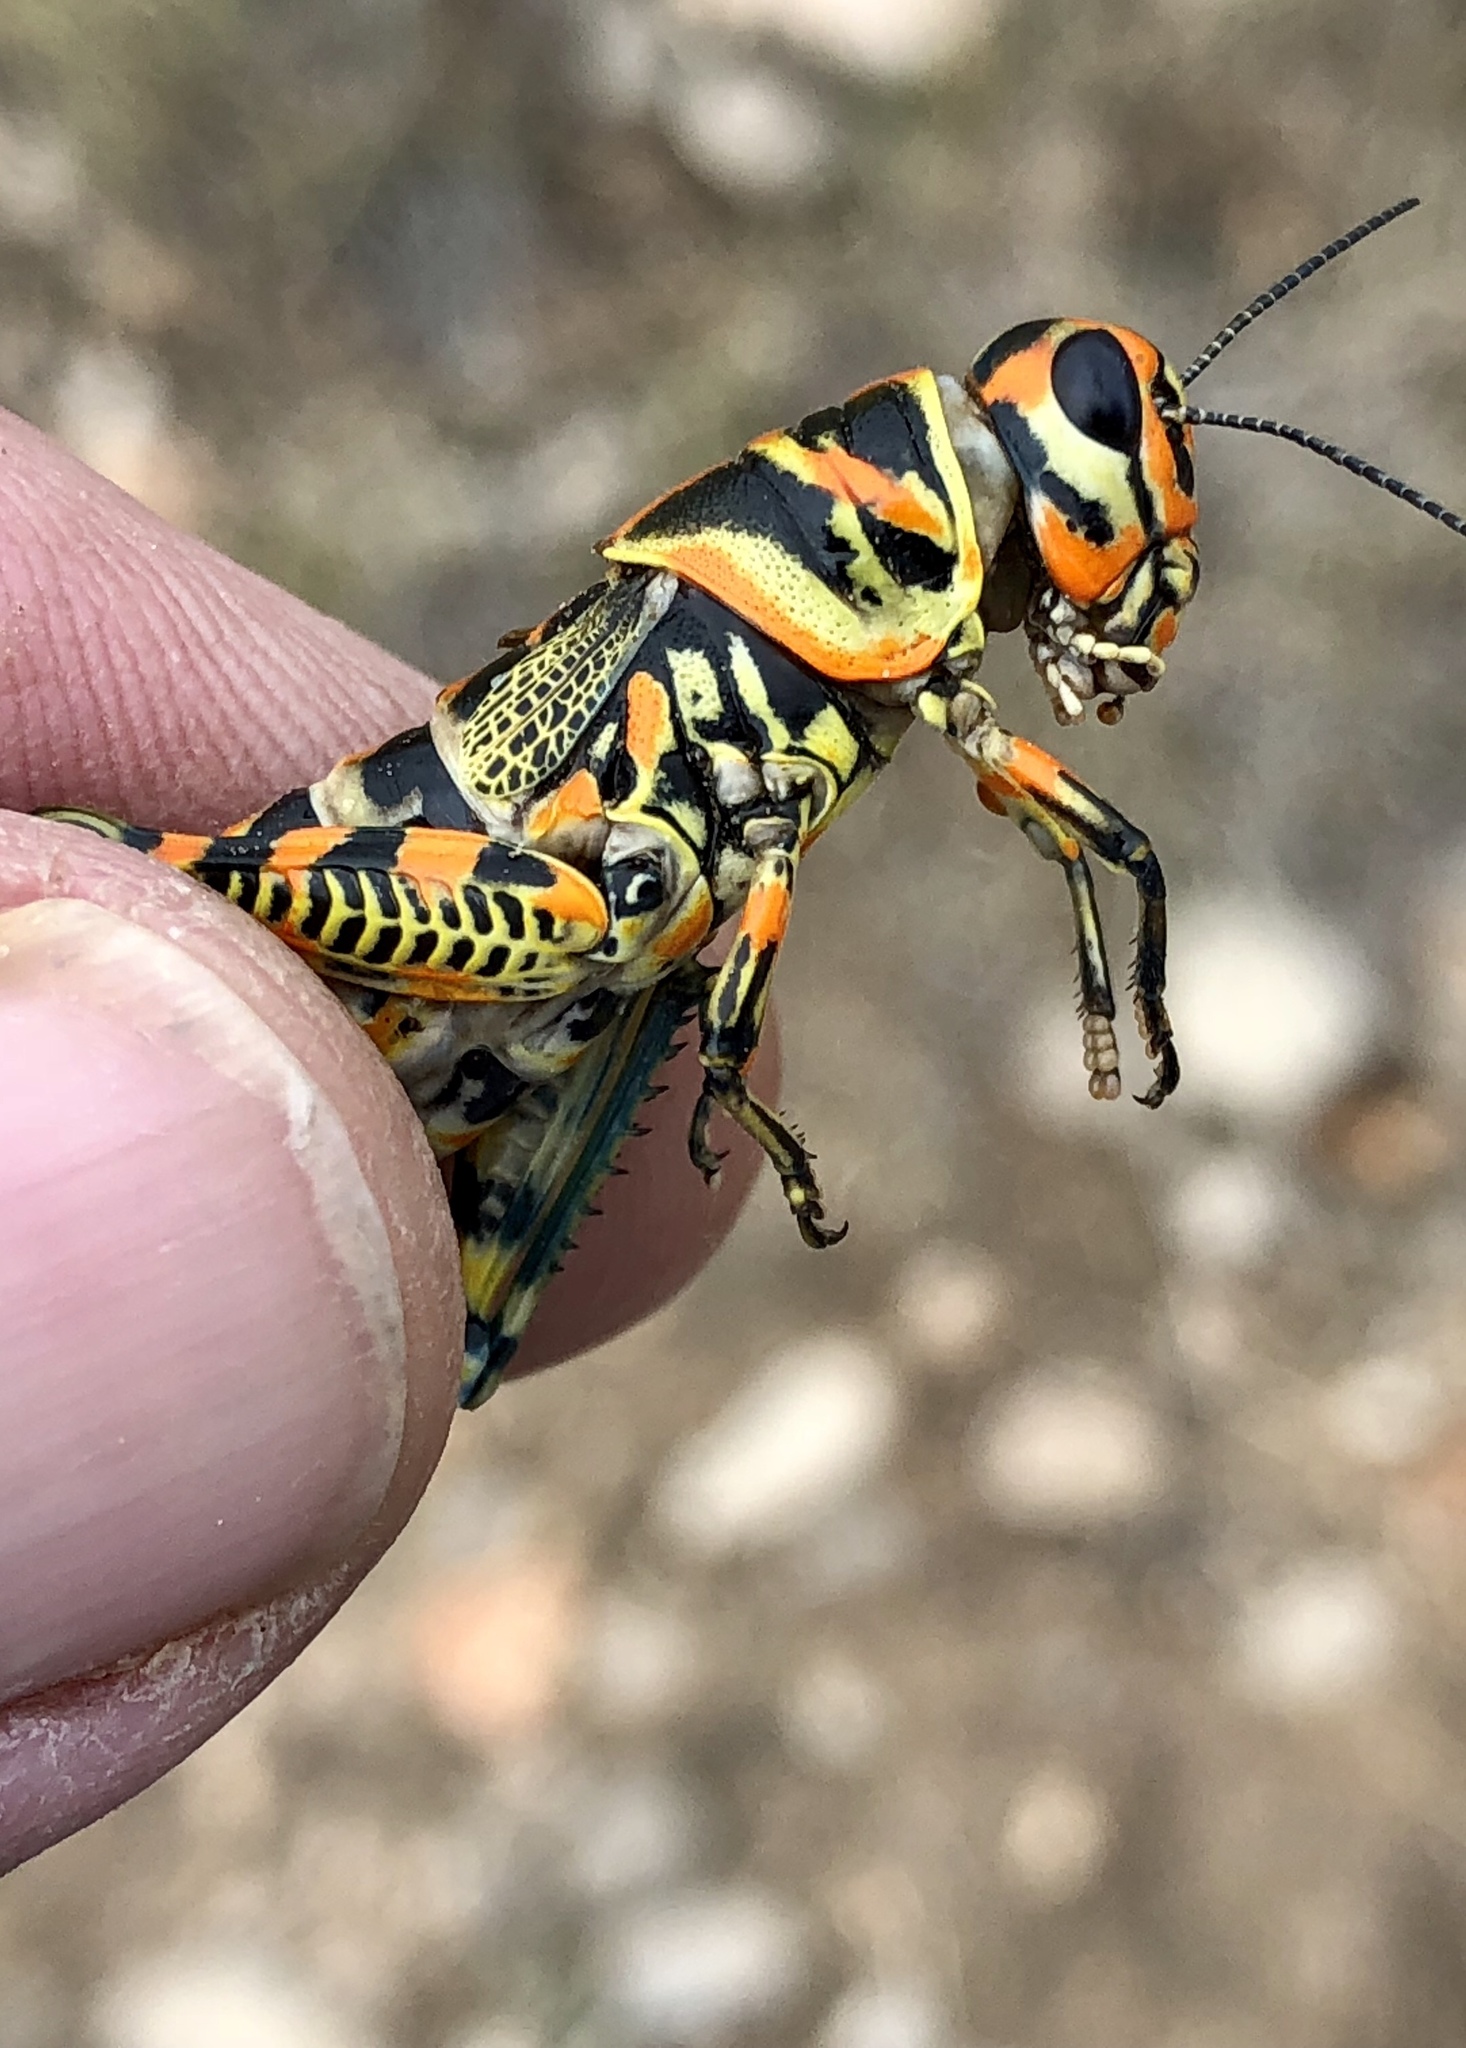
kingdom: Animalia
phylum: Arthropoda
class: Insecta
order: Orthoptera
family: Acrididae
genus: Dactylotum
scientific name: Dactylotum bicolor
